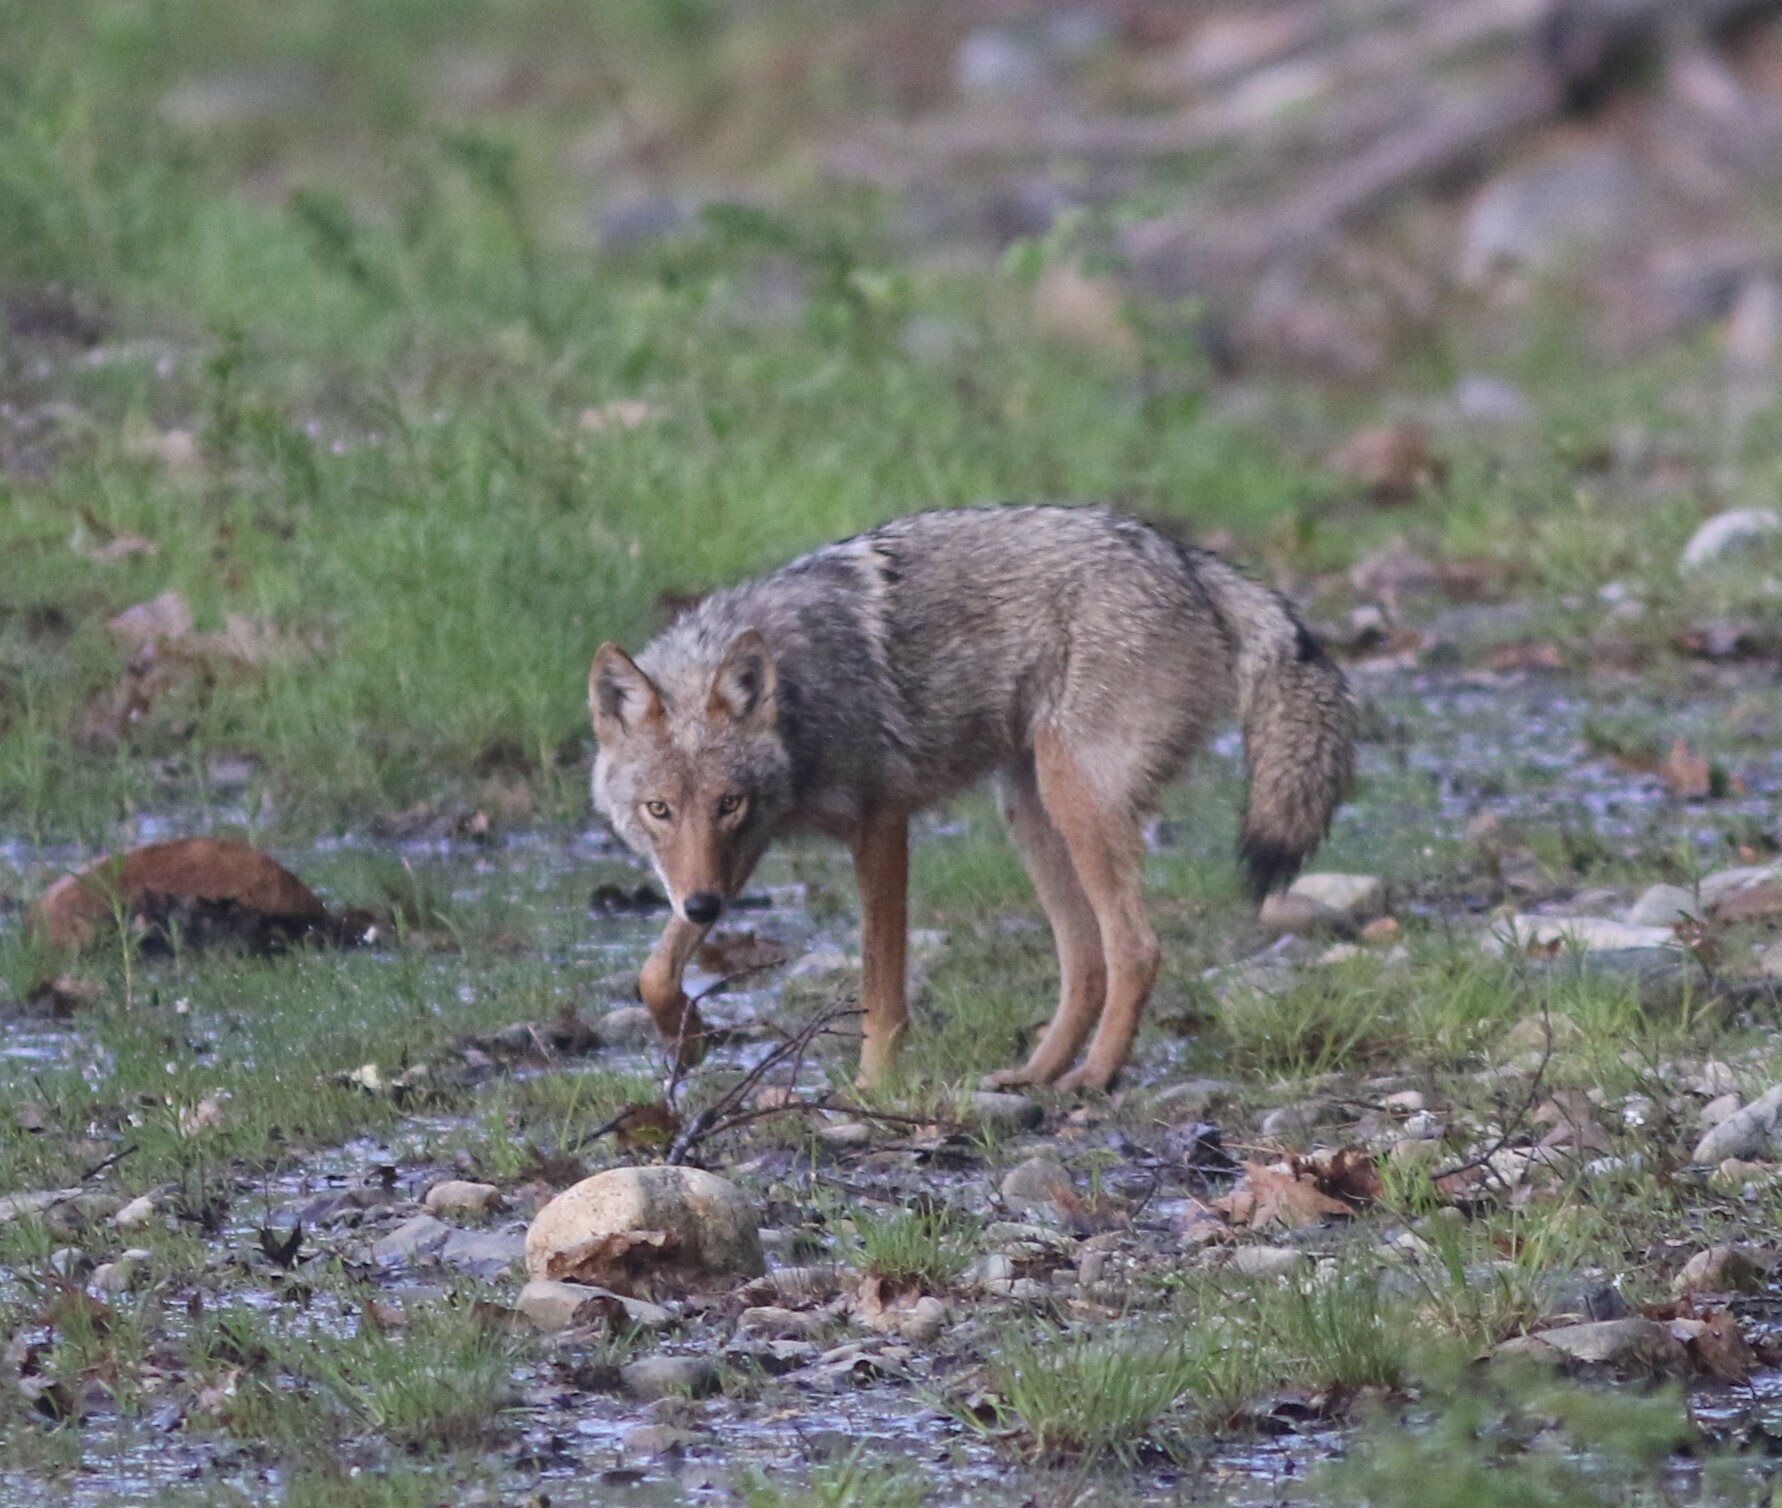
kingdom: Animalia
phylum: Chordata
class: Mammalia
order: Carnivora
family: Canidae
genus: Canis
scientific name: Canis latrans
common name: Coyote
